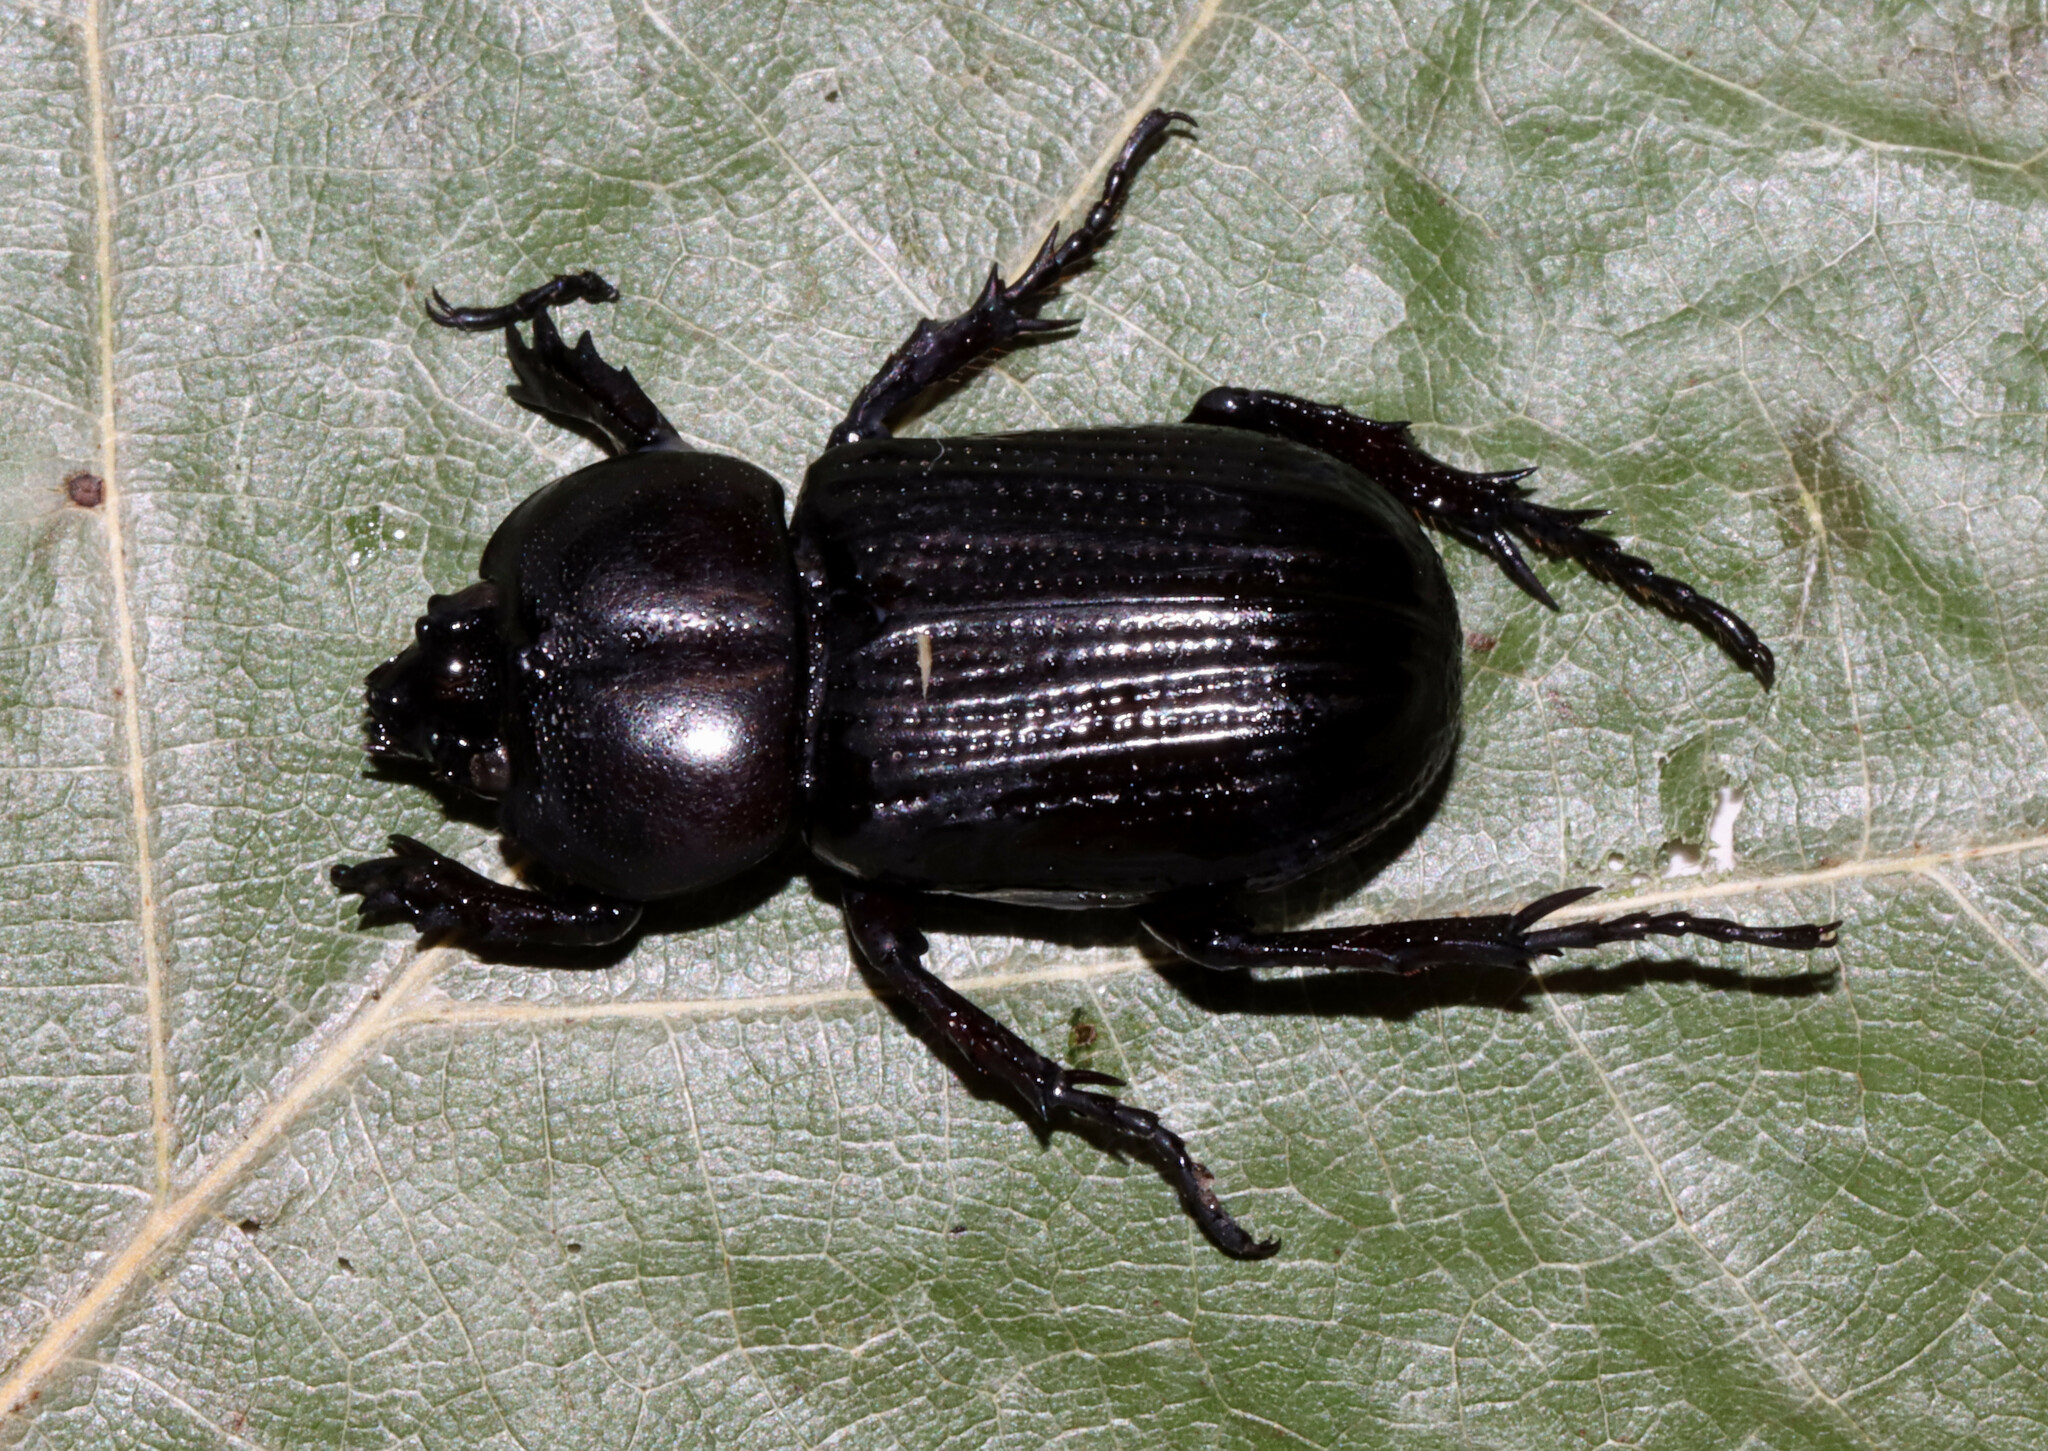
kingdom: Animalia
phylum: Arthropoda
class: Insecta
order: Coleoptera
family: Scarabaeidae
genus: Phileurus
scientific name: Phileurus valgus
